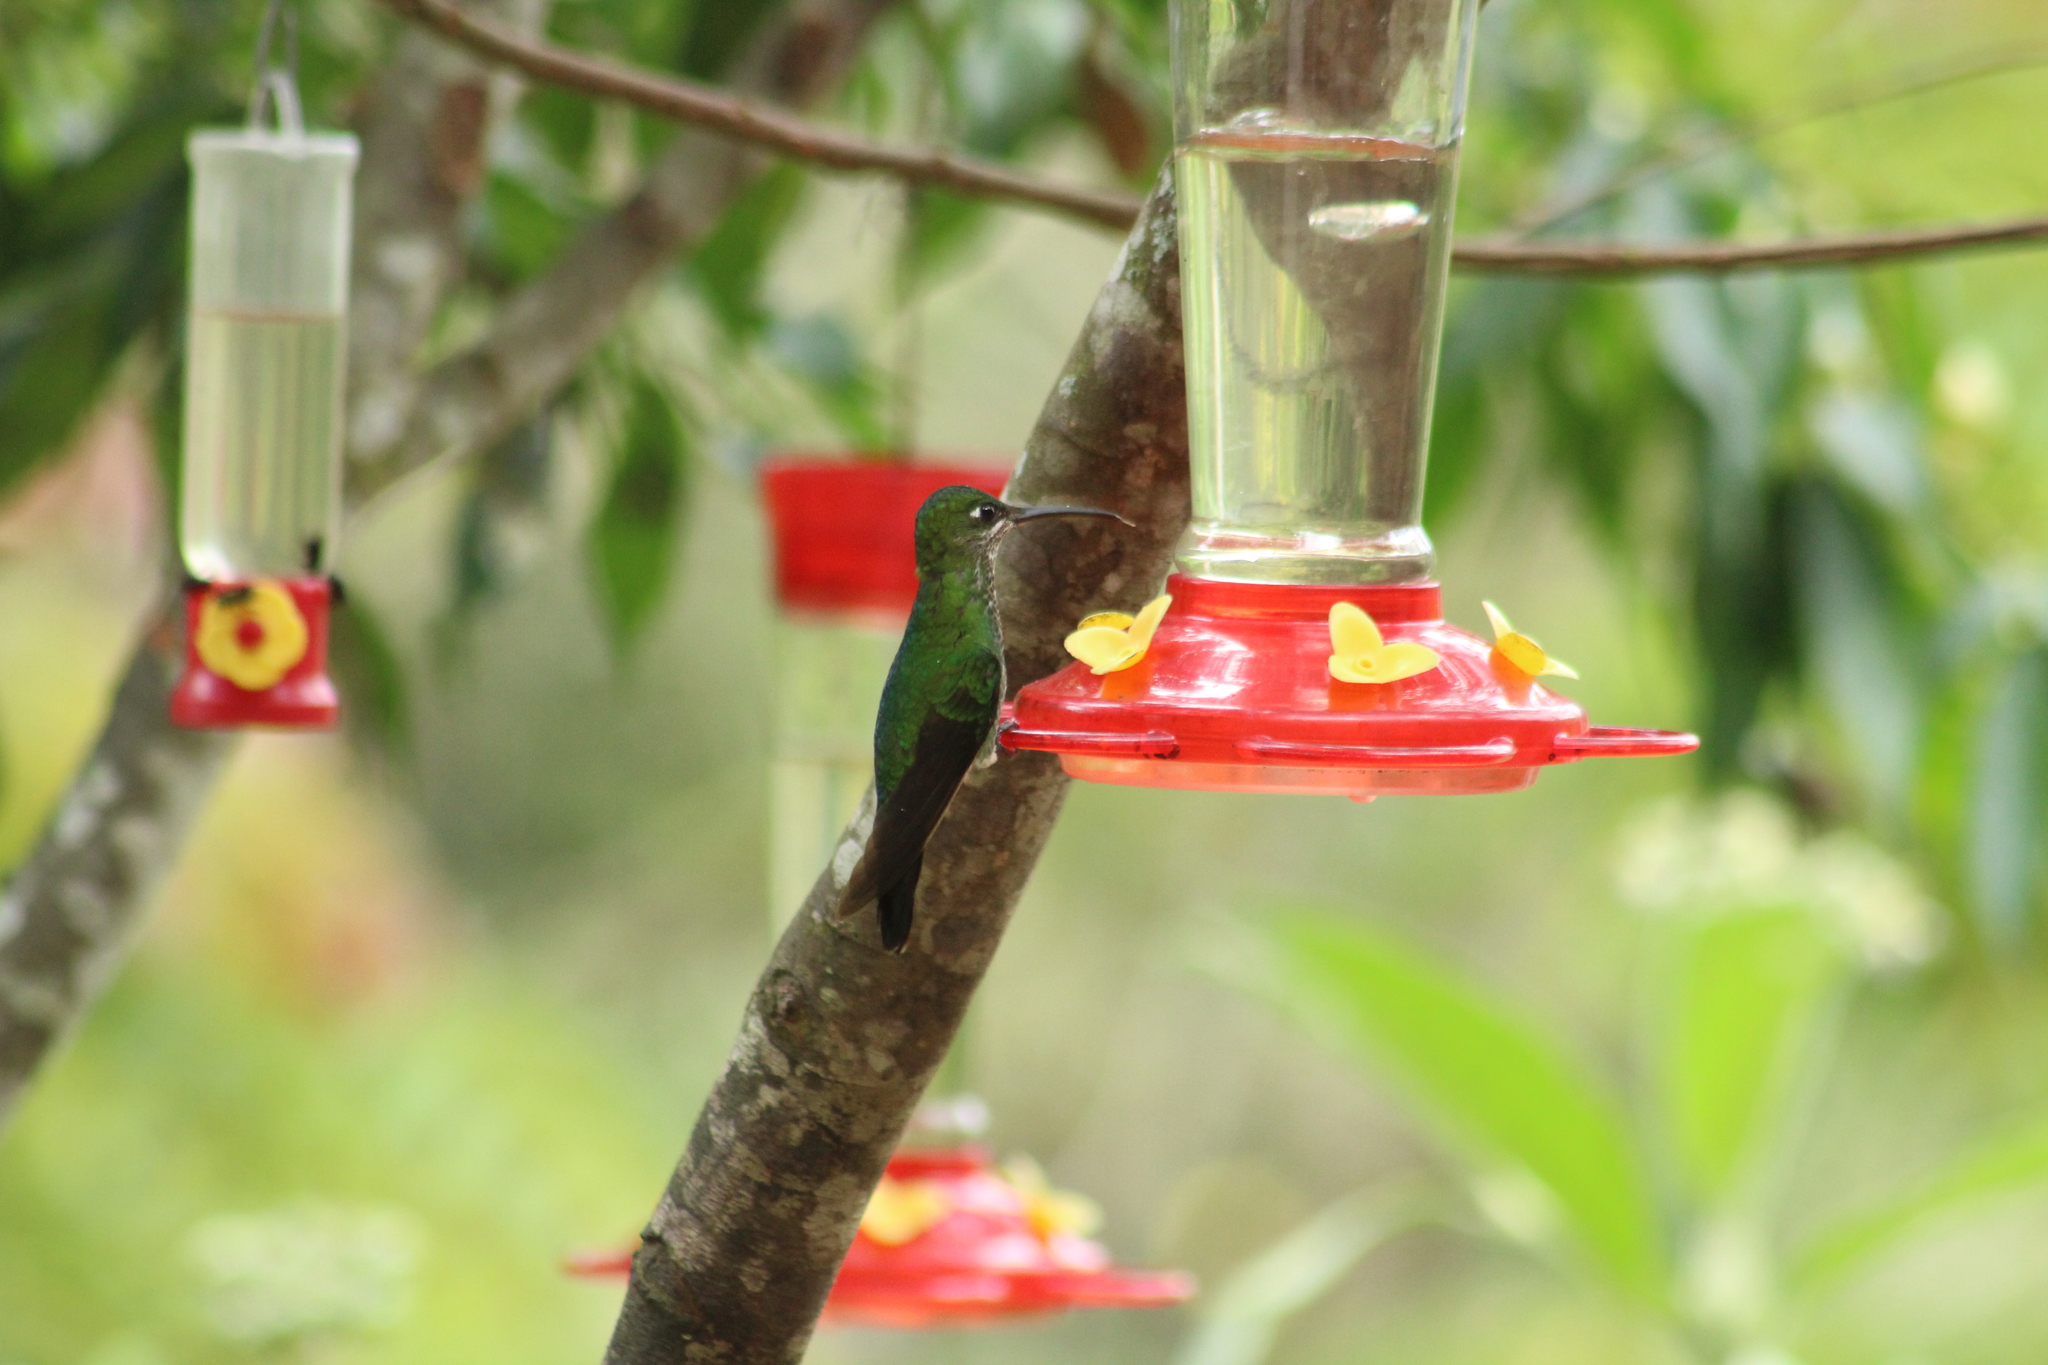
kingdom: Animalia
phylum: Chordata
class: Aves
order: Apodiformes
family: Trochilidae
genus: Heliodoxa
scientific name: Heliodoxa jacula
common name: Green-crowned brilliant
